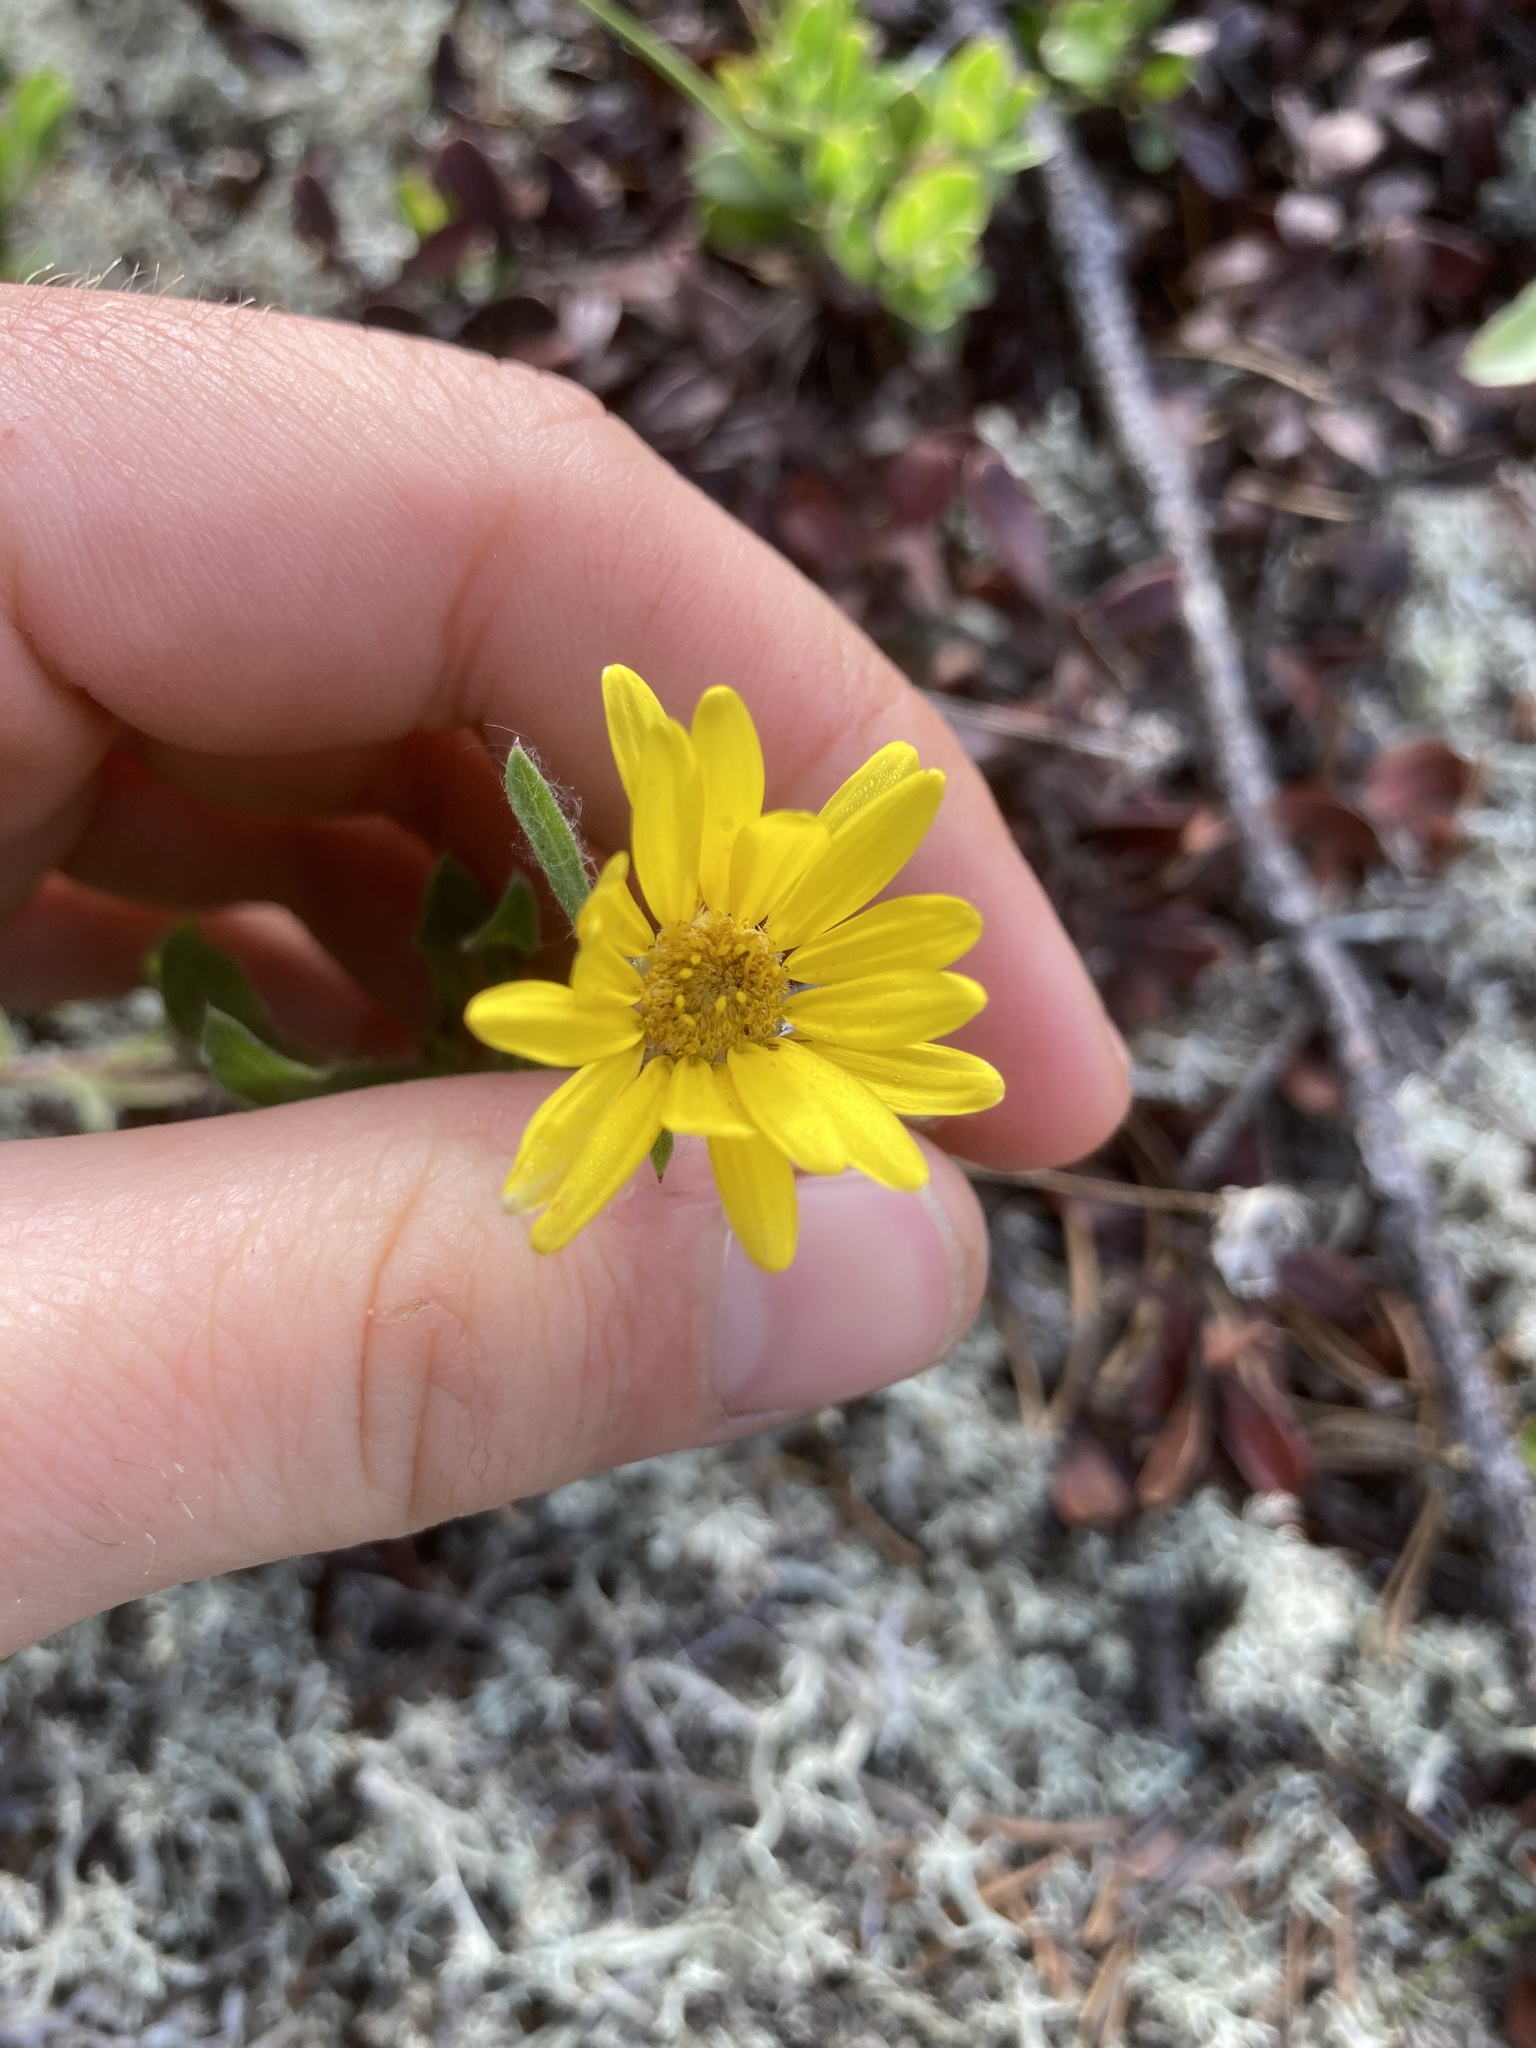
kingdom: Plantae
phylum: Tracheophyta
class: Magnoliopsida
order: Asterales
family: Asteraceae
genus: Heterotheca
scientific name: Heterotheca villosa
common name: Hairy false goldenaster
